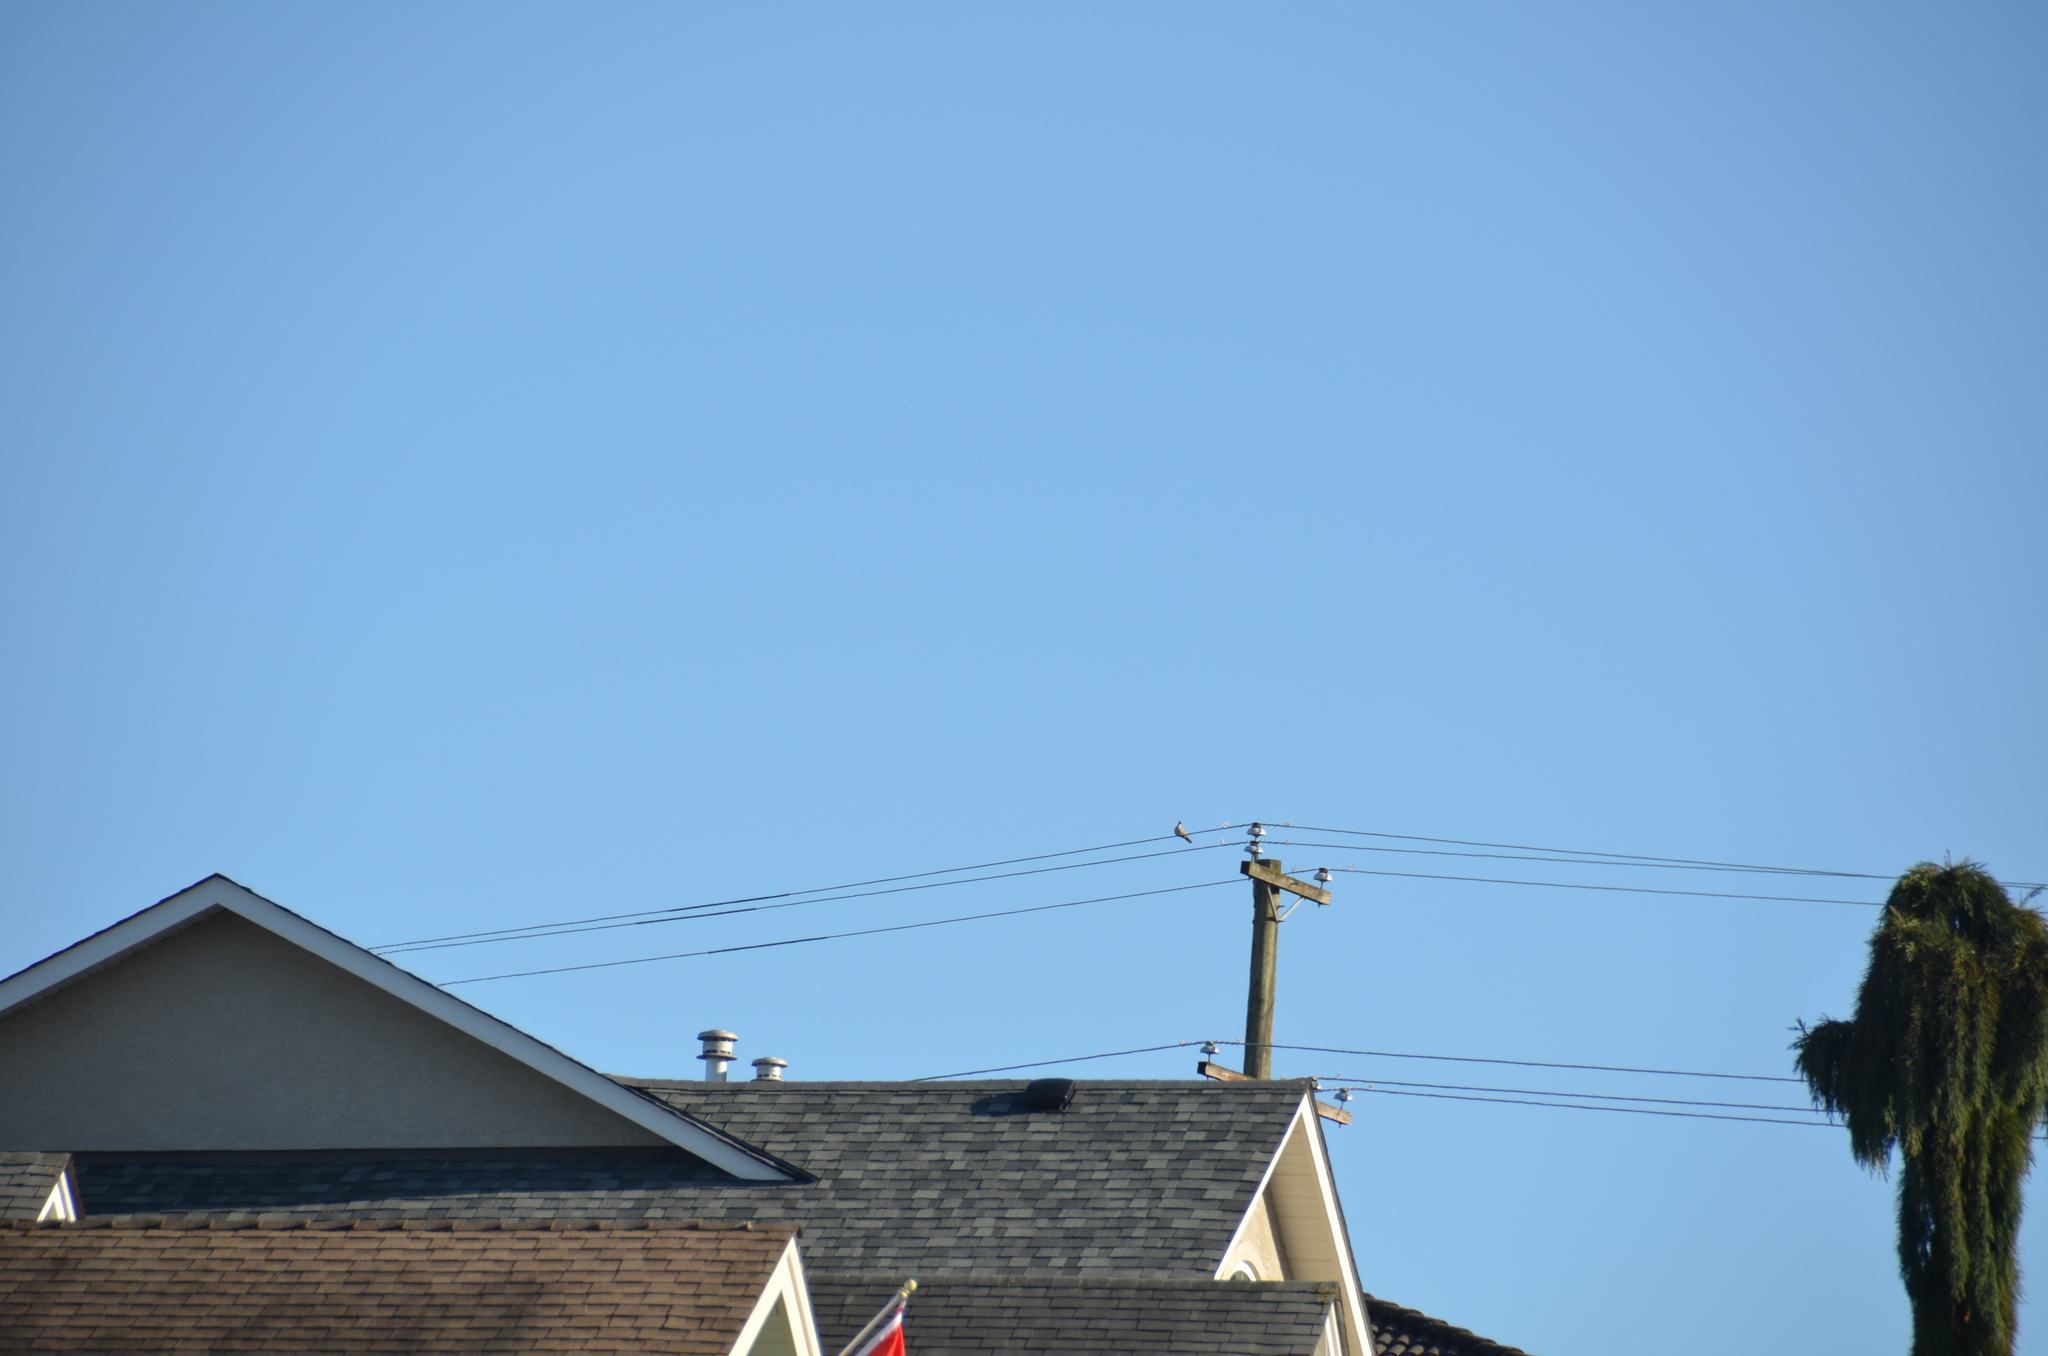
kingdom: Animalia
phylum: Chordata
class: Aves
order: Columbiformes
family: Columbidae
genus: Streptopelia
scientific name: Streptopelia decaocto
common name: Eurasian collared dove
